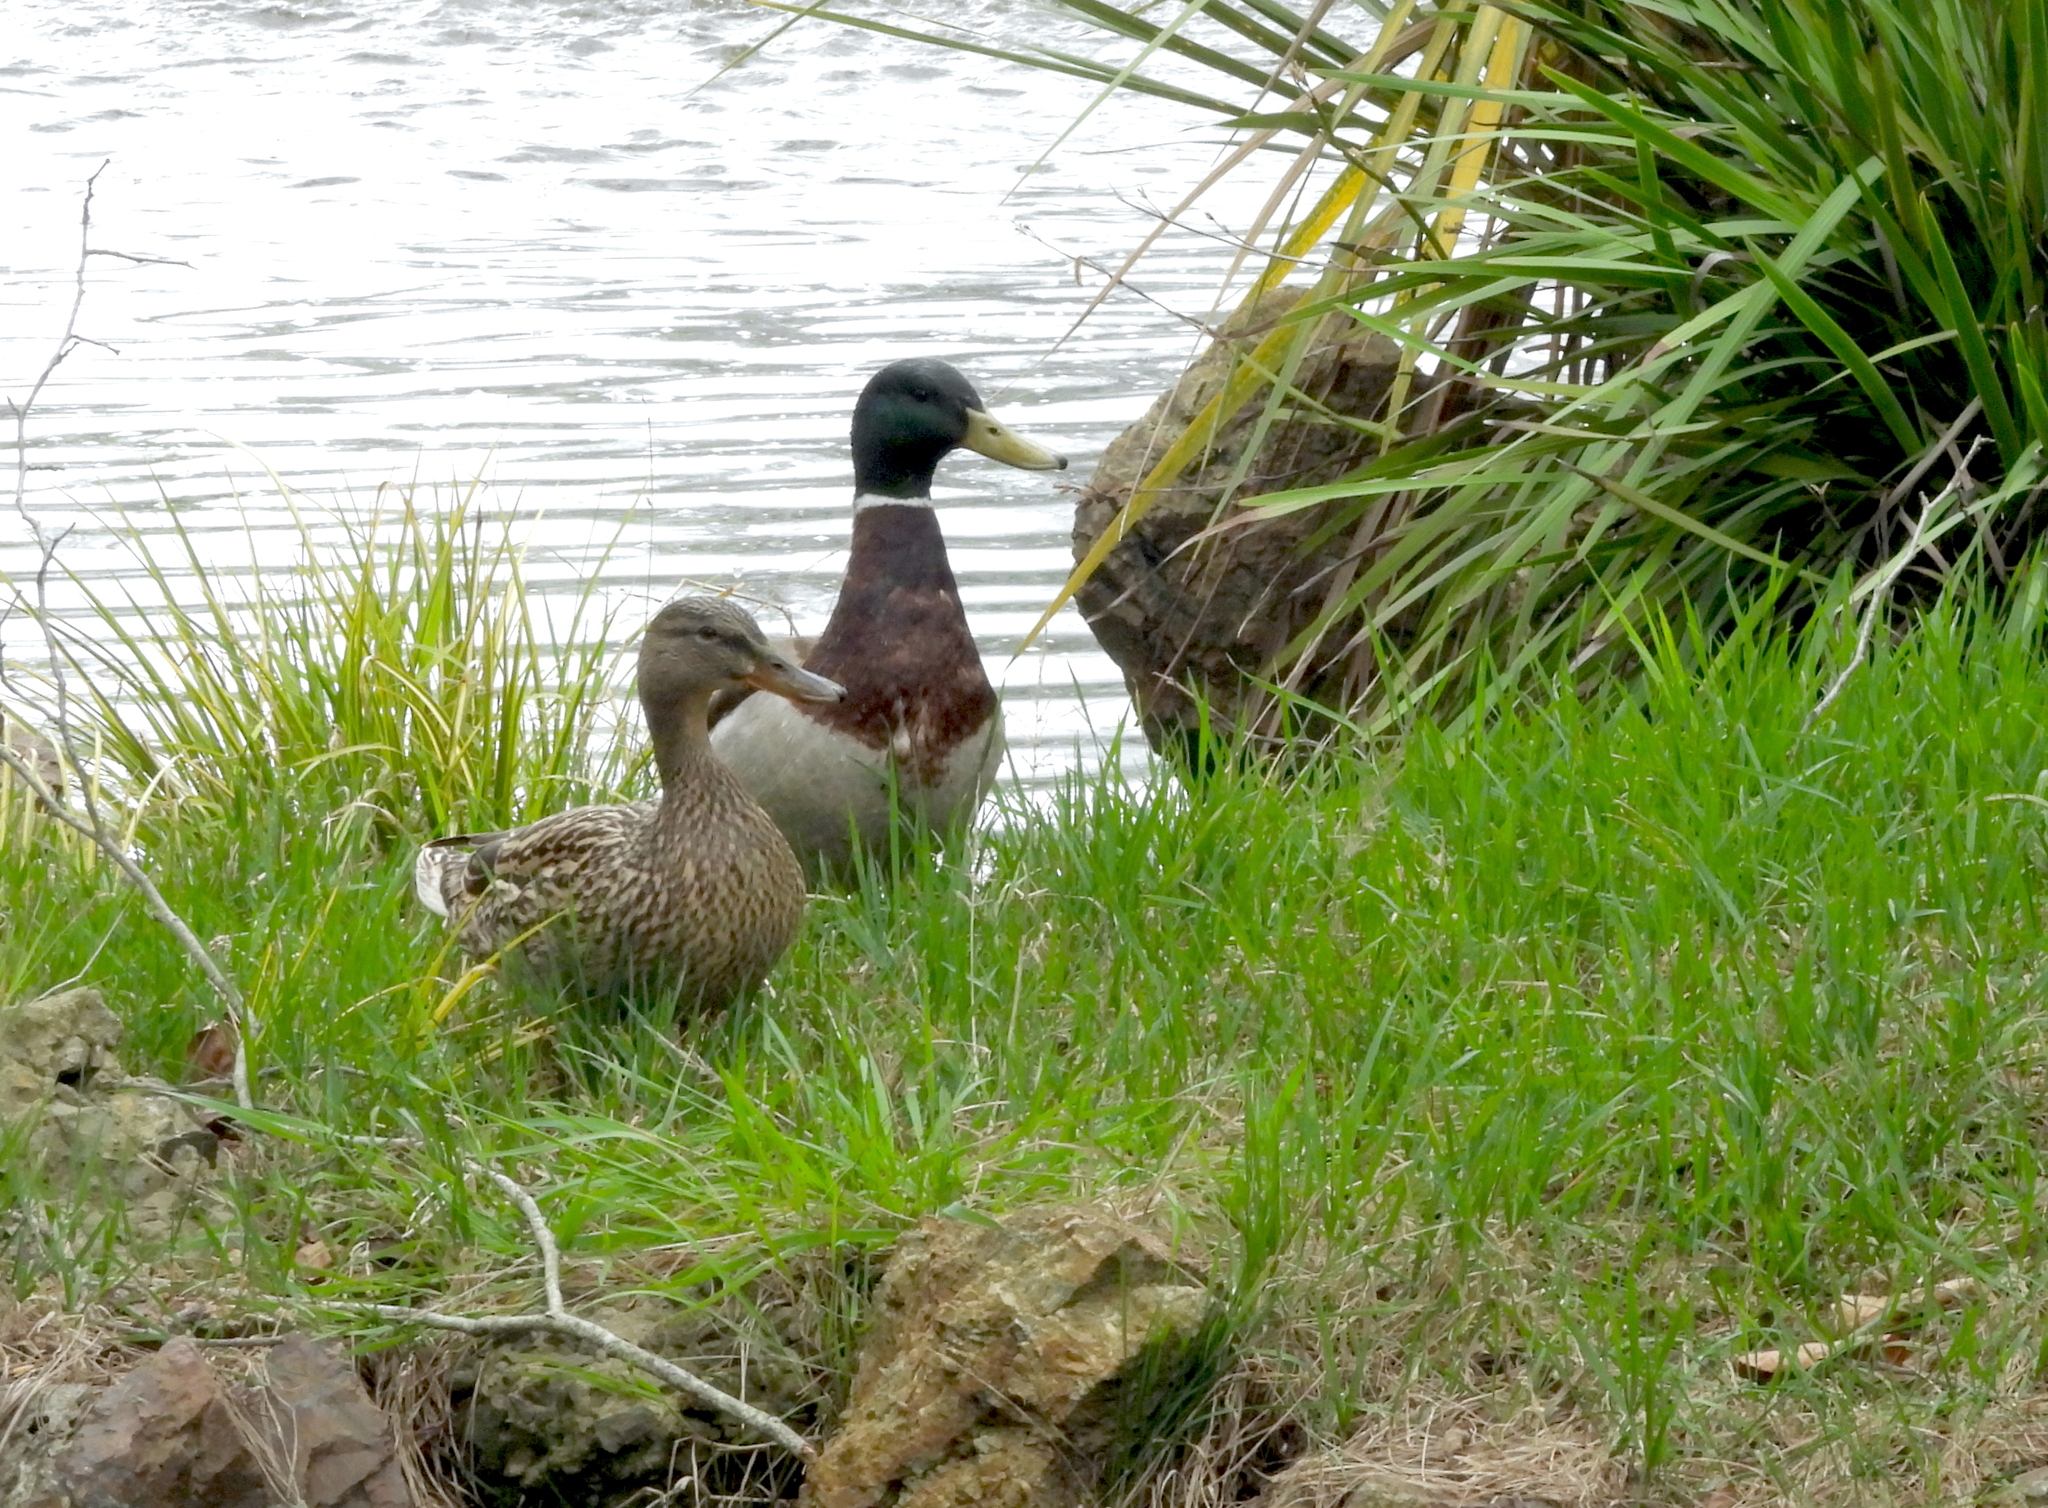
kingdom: Animalia
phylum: Chordata
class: Aves
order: Anseriformes
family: Anatidae
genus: Anas
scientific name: Anas platyrhynchos
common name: Mallard
